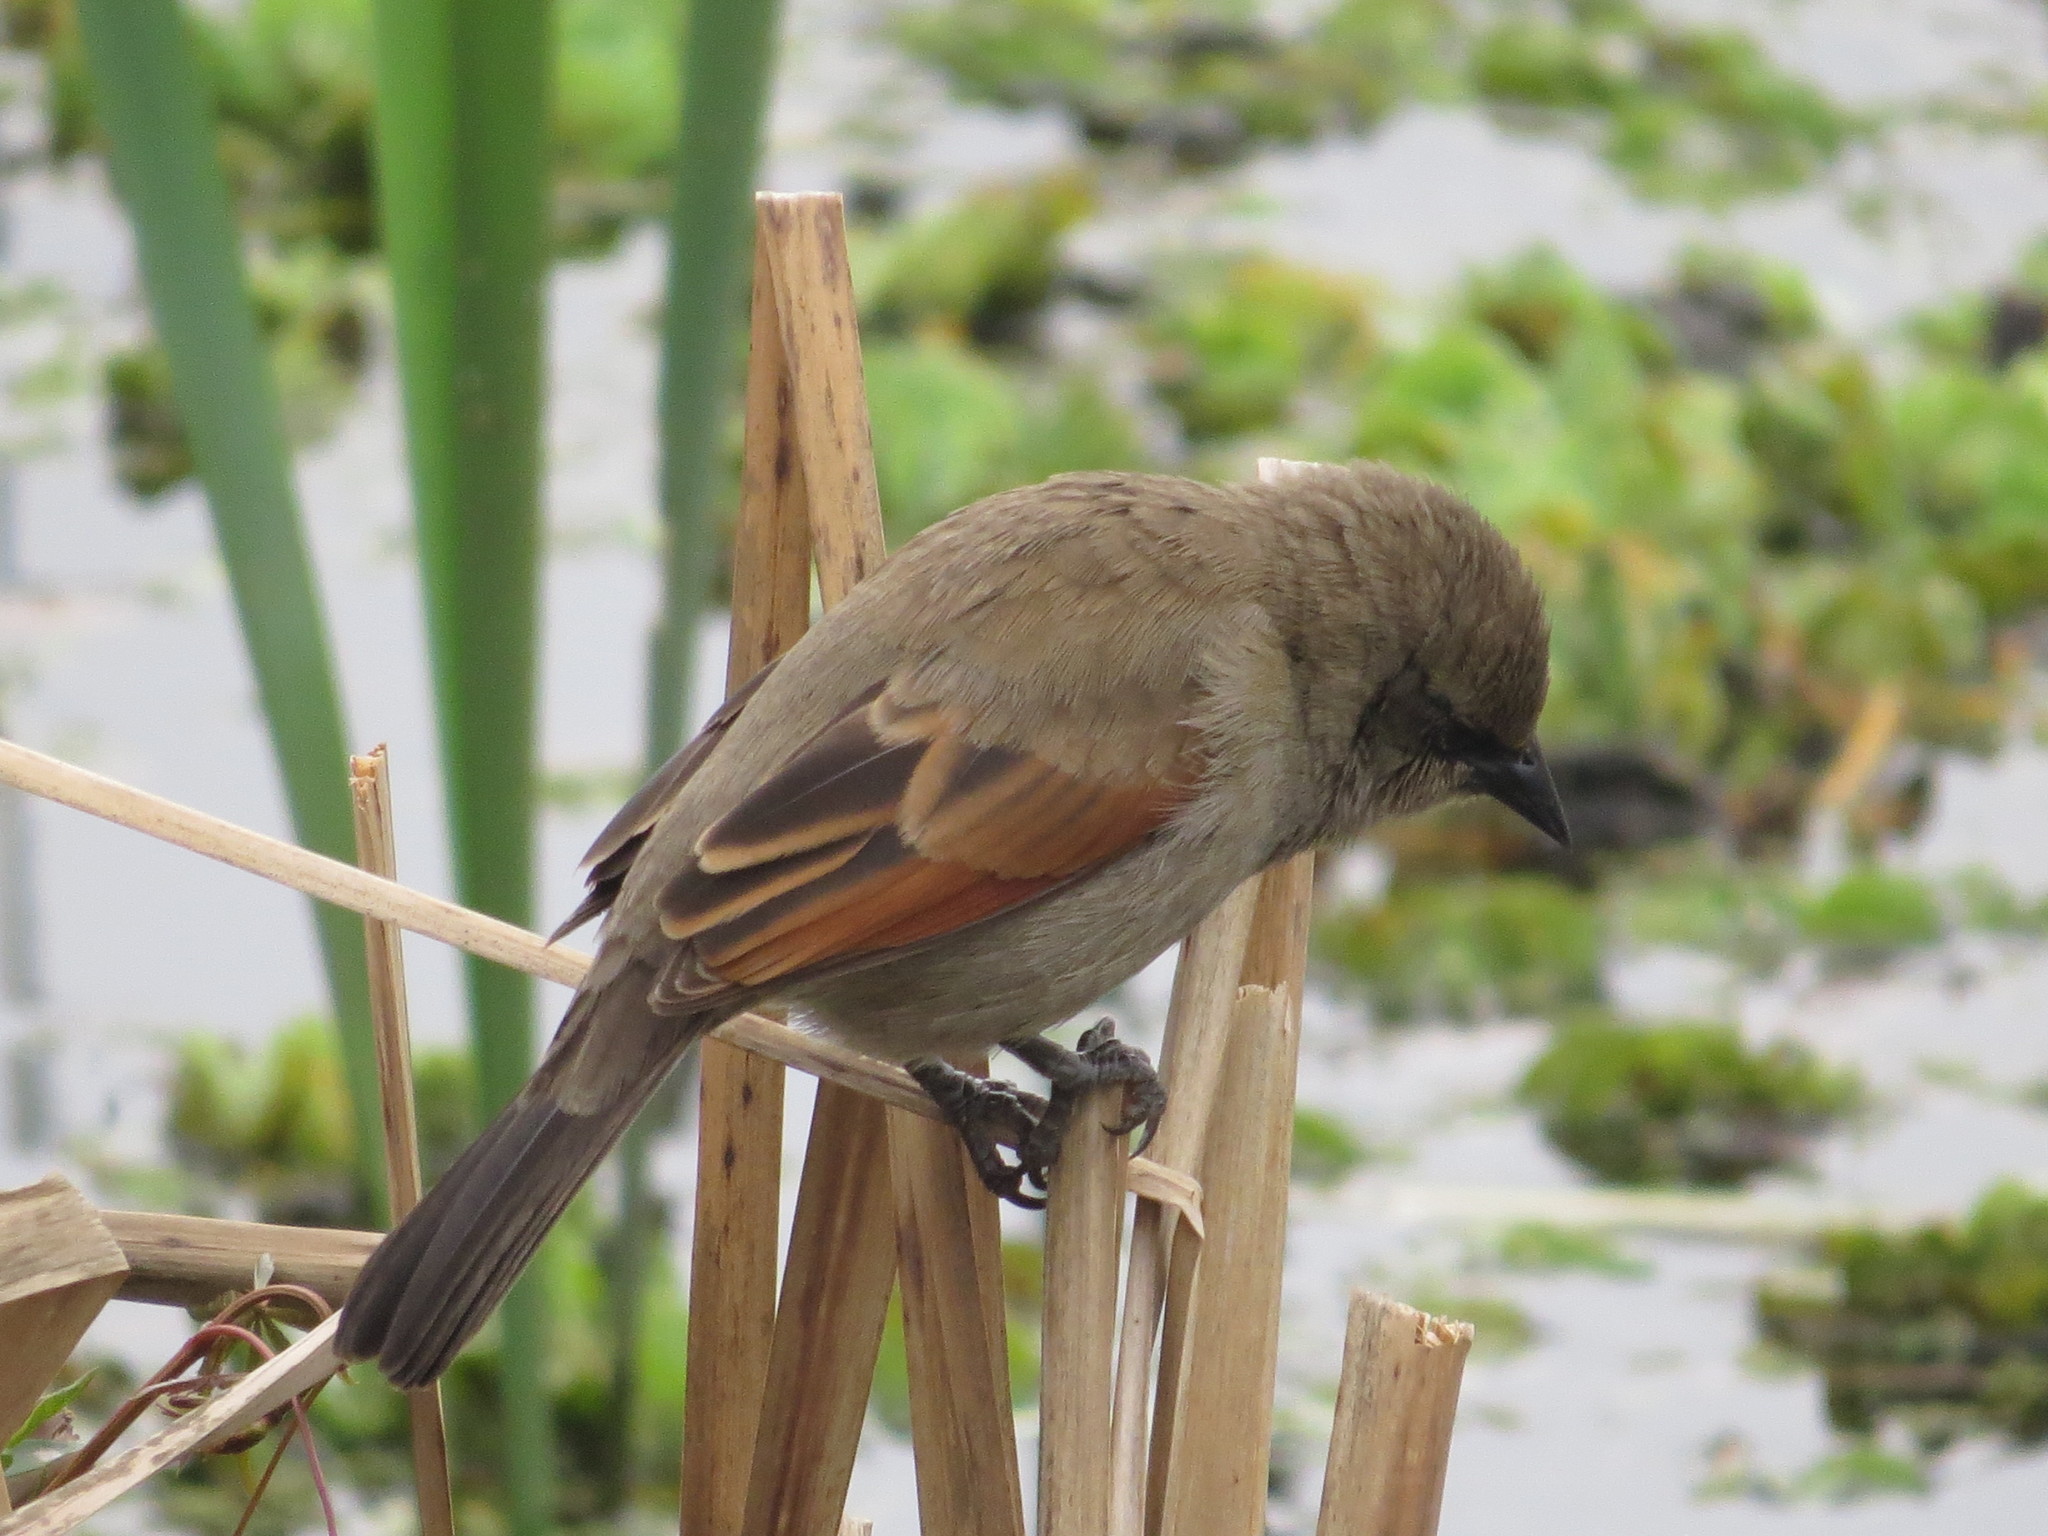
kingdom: Animalia
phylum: Chordata
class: Aves
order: Passeriformes
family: Icteridae
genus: Agelaioides
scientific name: Agelaioides badius
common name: Baywing
